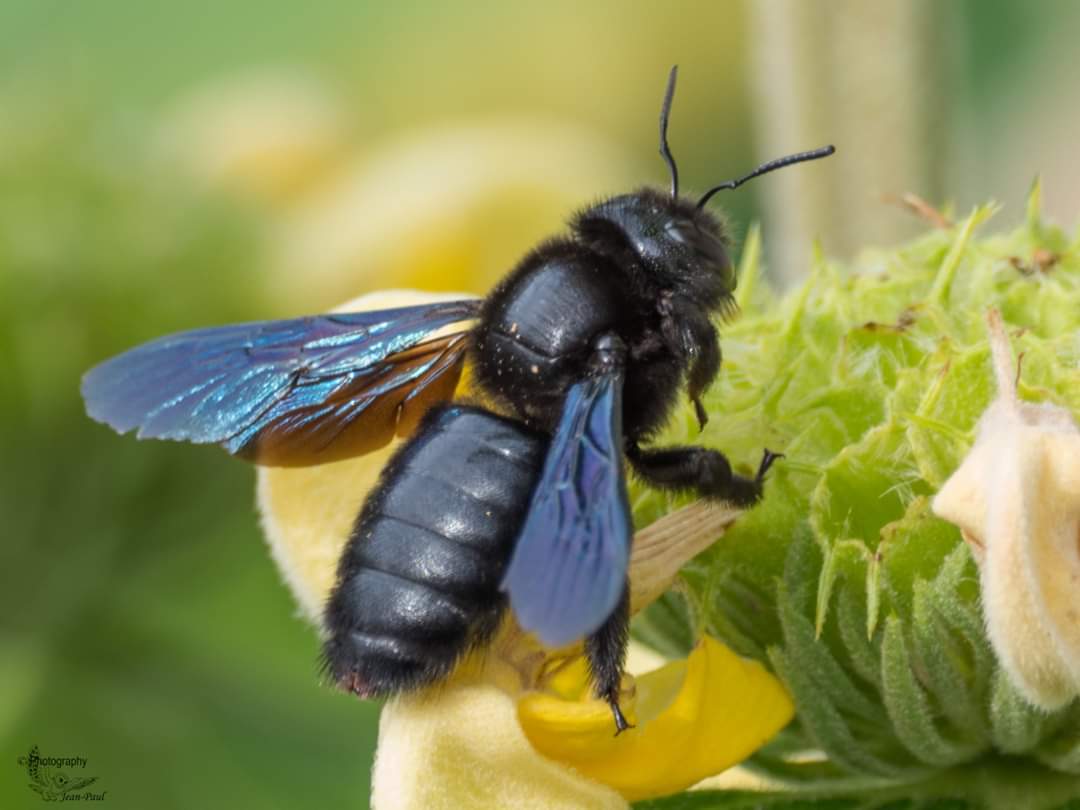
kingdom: Animalia
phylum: Arthropoda
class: Insecta
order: Hymenoptera
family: Apidae
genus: Xylocopa
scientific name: Xylocopa violacea
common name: Violet carpenter bee
